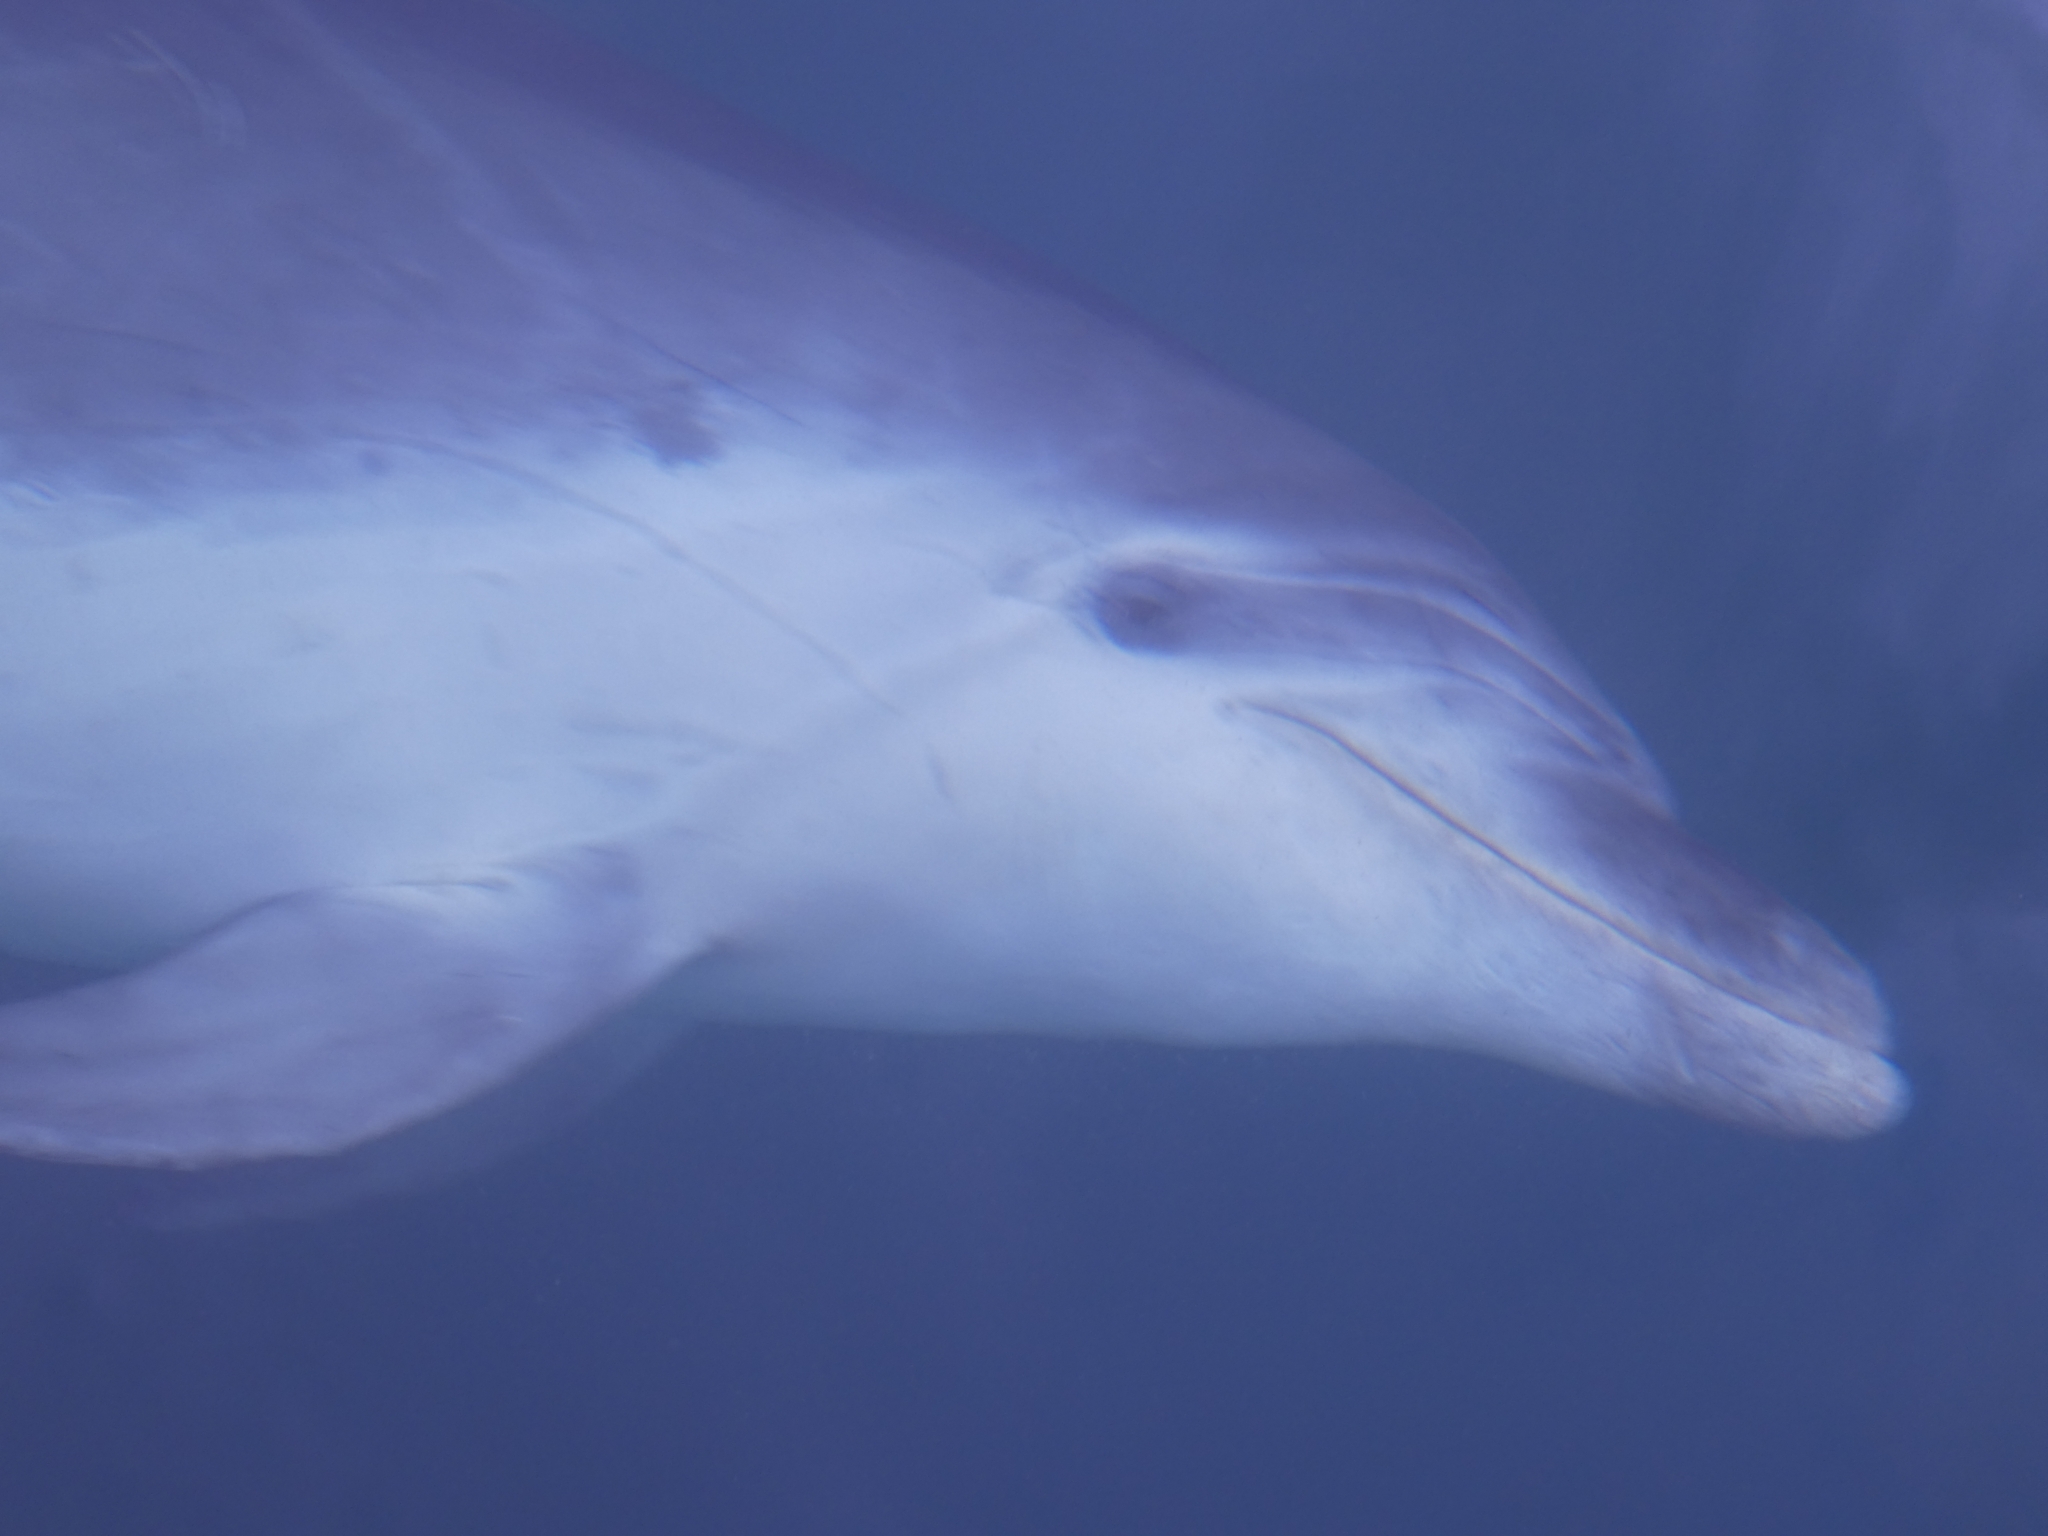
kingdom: Animalia
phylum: Chordata
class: Mammalia
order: Cetacea
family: Delphinidae
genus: Tursiops
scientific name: Tursiops truncatus
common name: Bottlenose dolphin
